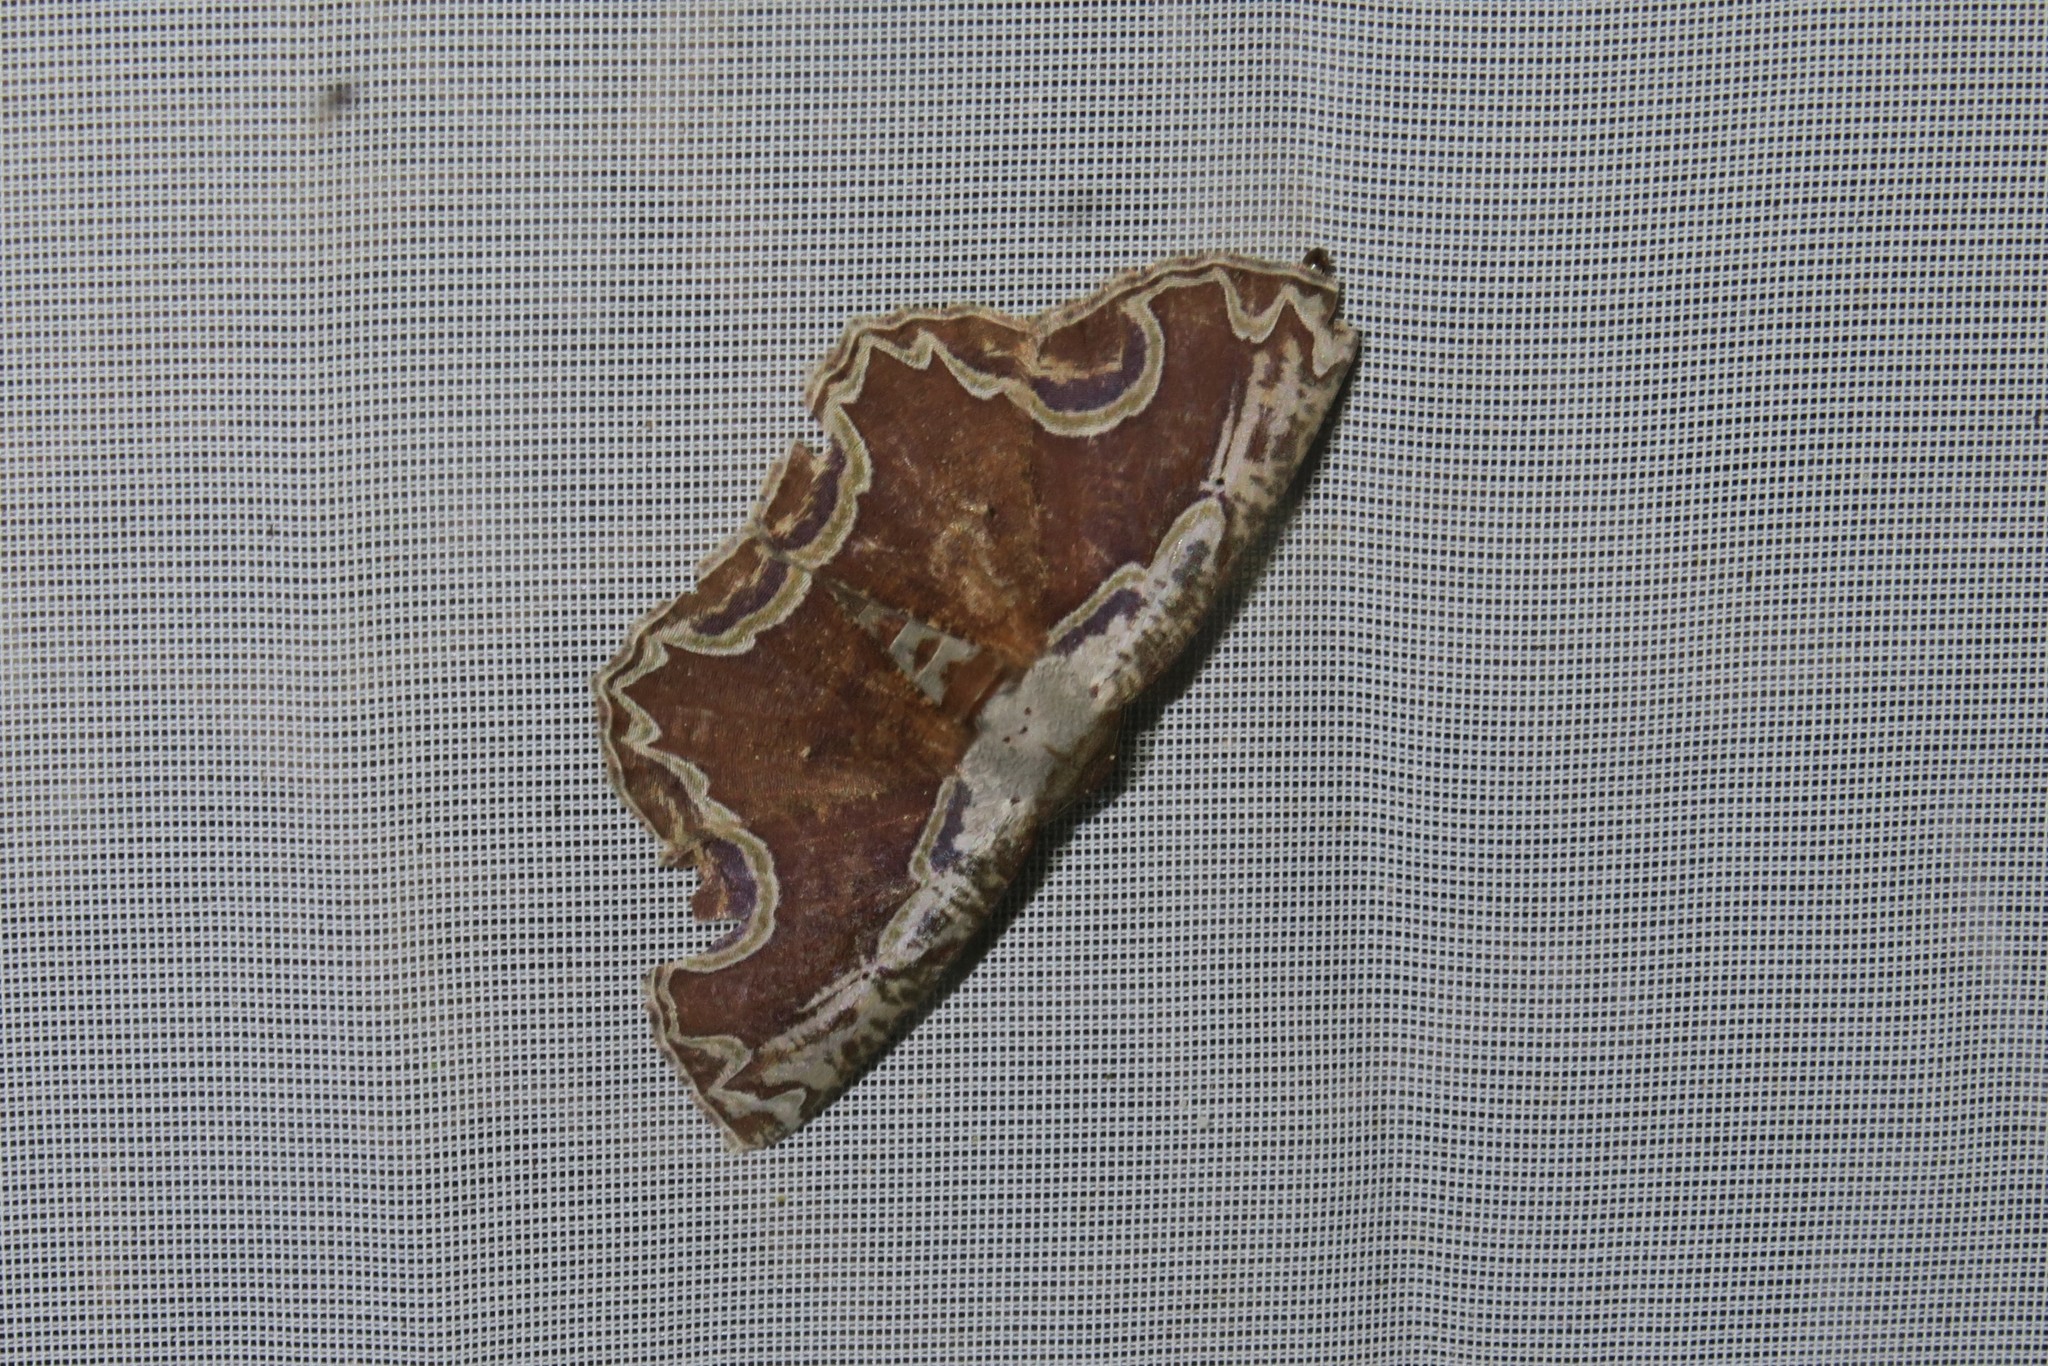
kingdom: Animalia
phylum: Arthropoda
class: Insecta
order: Lepidoptera
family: Geometridae
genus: Sabulodes
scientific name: Sabulodes ornatissima
